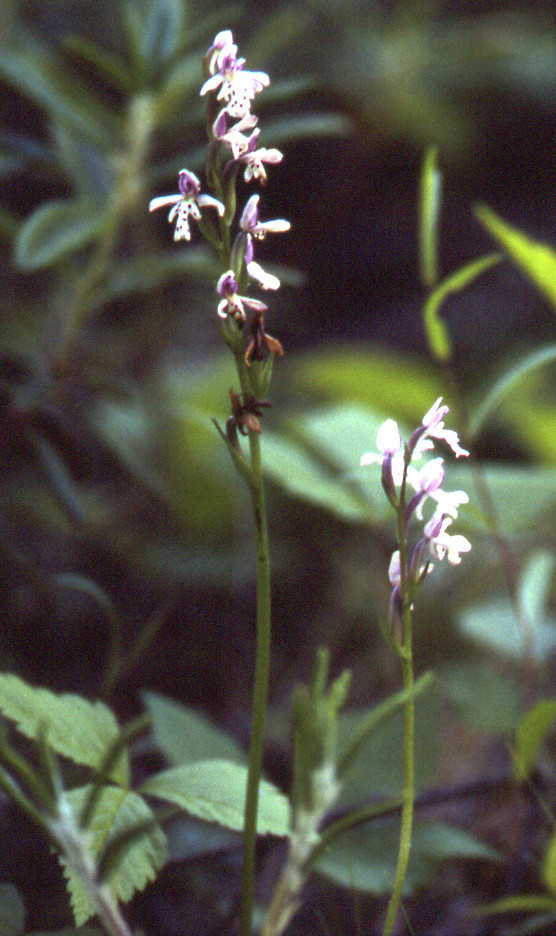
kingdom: Plantae
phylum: Tracheophyta
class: Liliopsida
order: Asparagales
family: Orchidaceae
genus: Galearis
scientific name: Galearis rotundifolia
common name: One-leaved orchis
